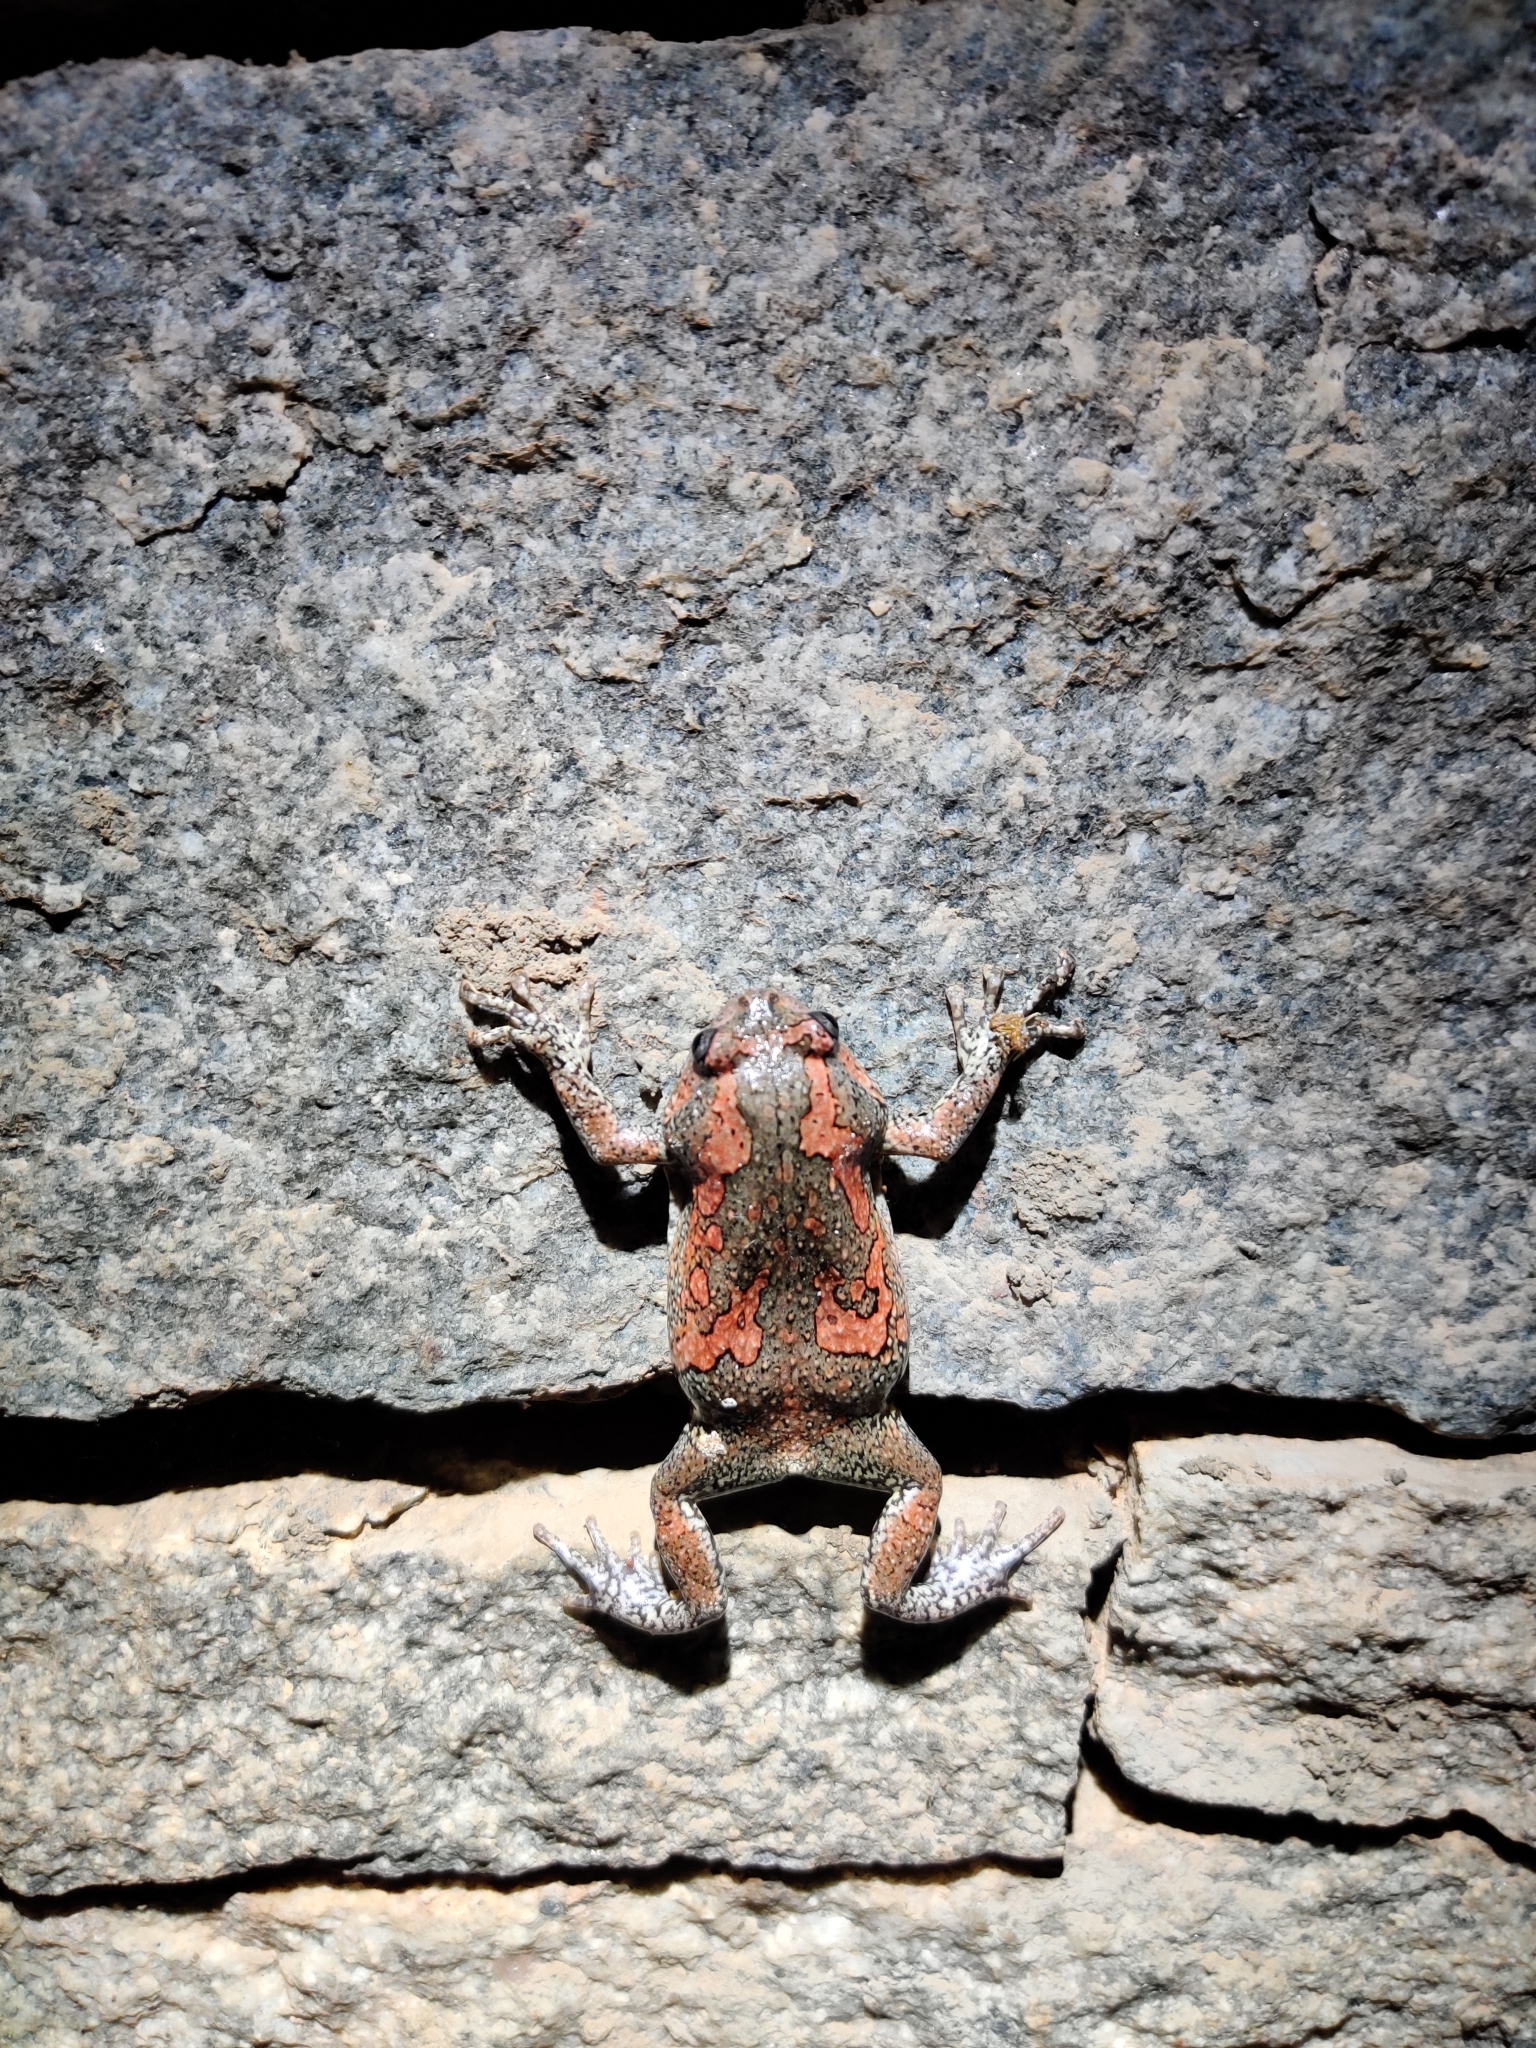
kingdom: Animalia
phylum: Chordata
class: Amphibia
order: Anura
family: Microhylidae
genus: Uperodon
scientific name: Uperodon taprobanicus
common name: Ceylon kaloula
